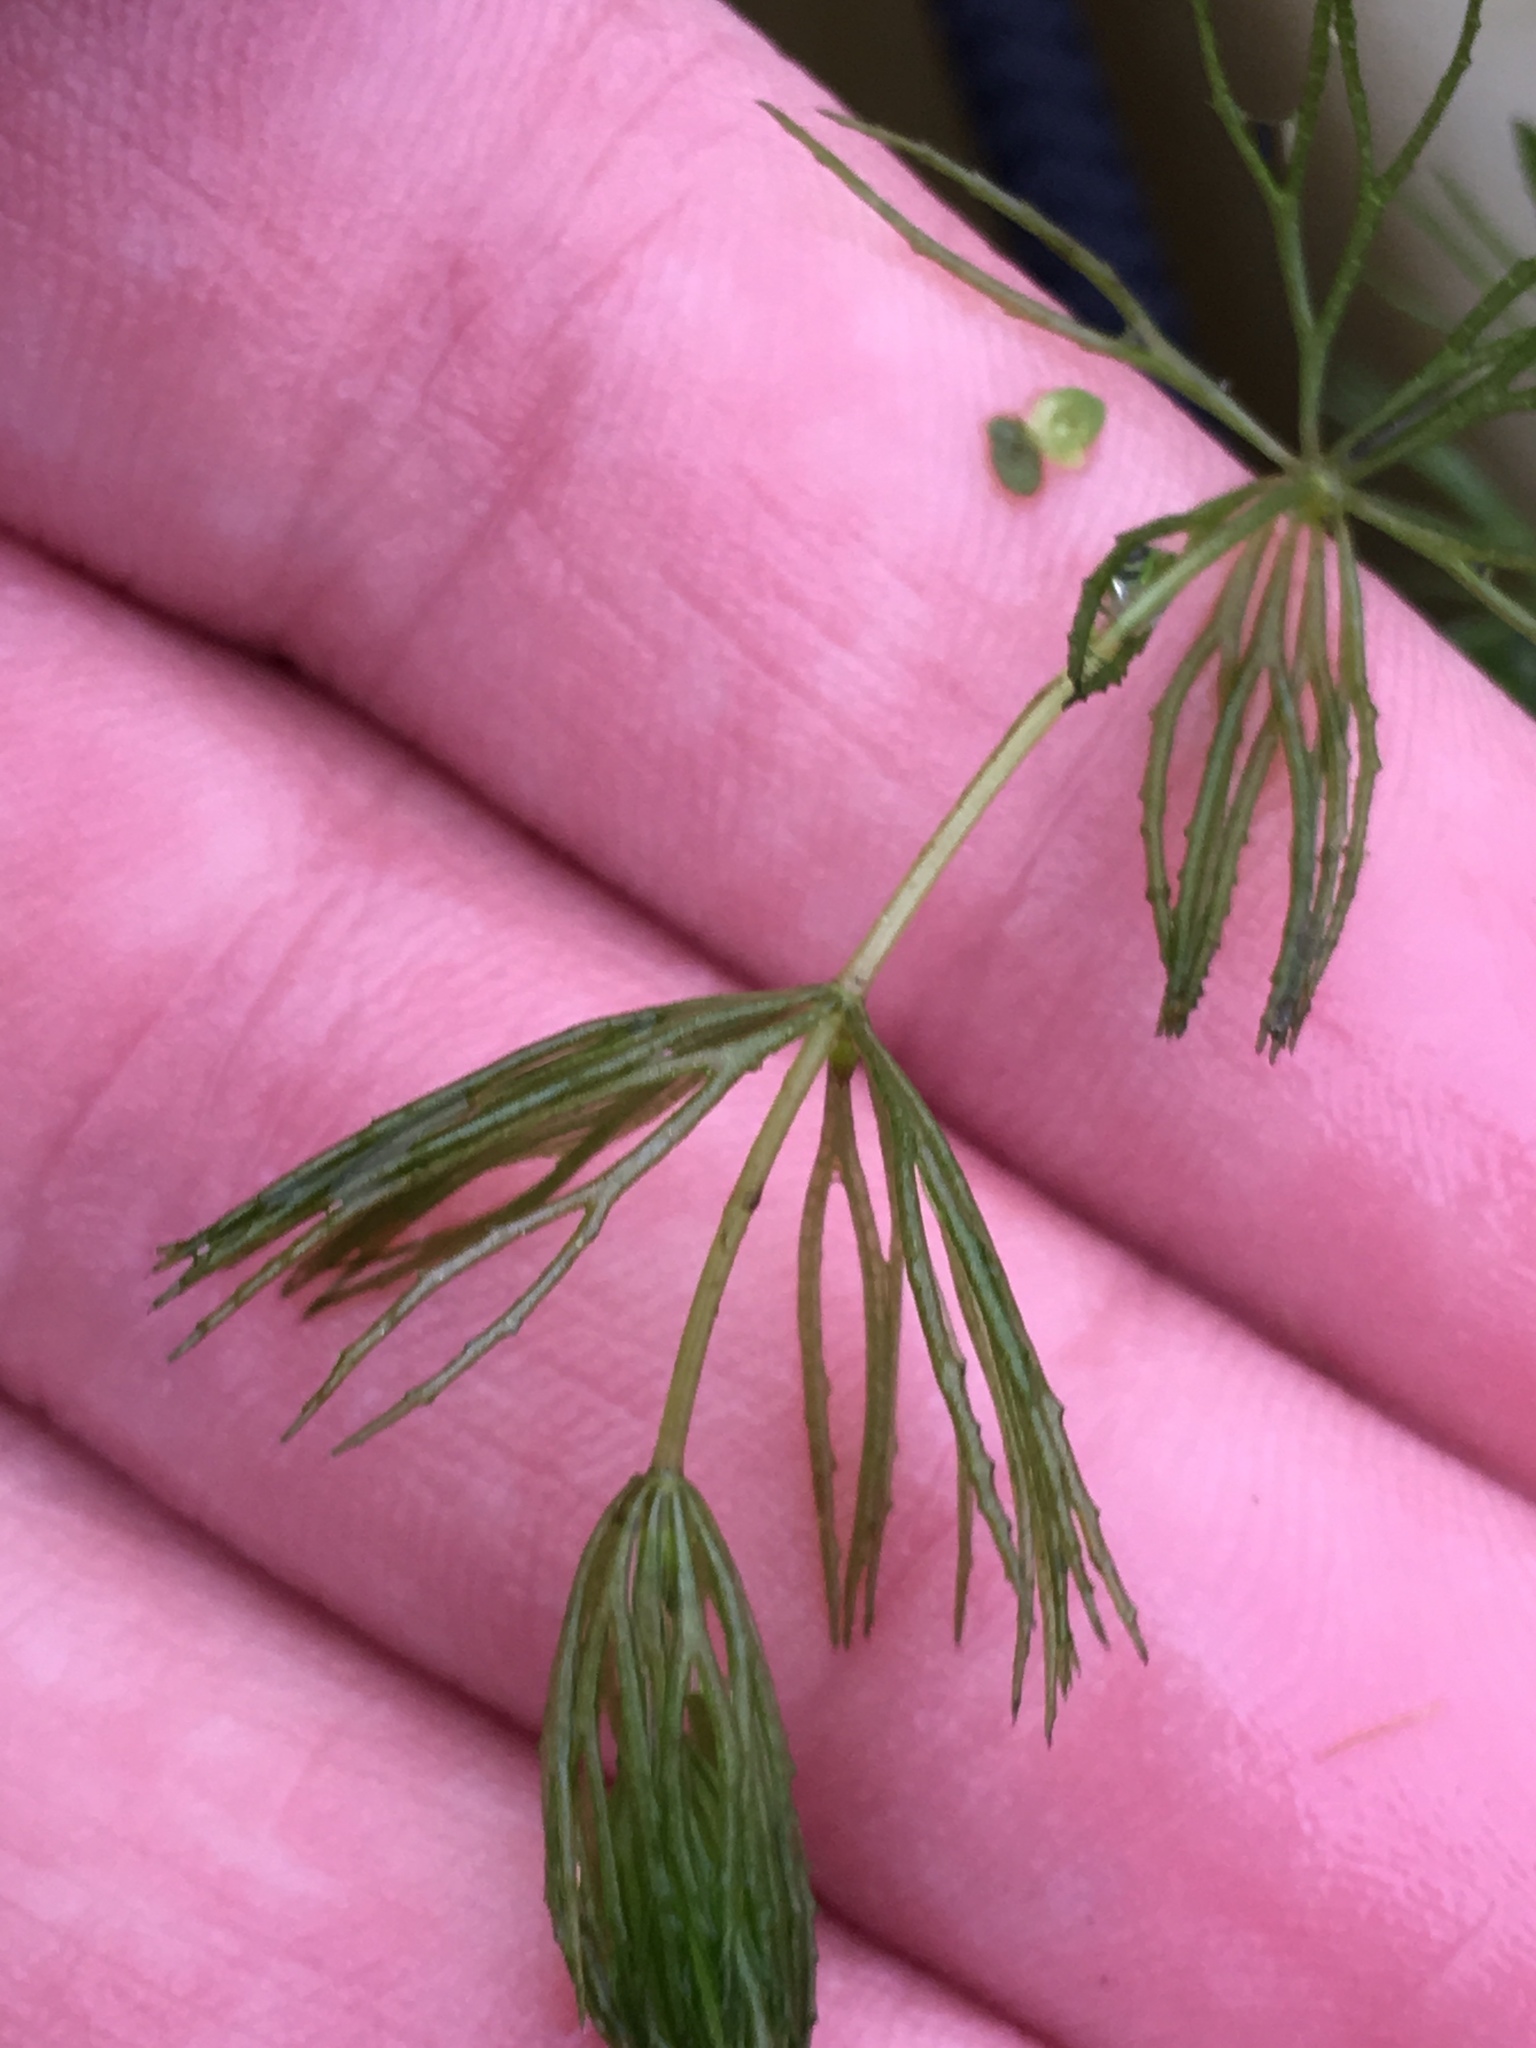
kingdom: Plantae
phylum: Tracheophyta
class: Magnoliopsida
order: Ceratophyllales
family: Ceratophyllaceae
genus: Ceratophyllum
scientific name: Ceratophyllum demersum
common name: Rigid hornwort
